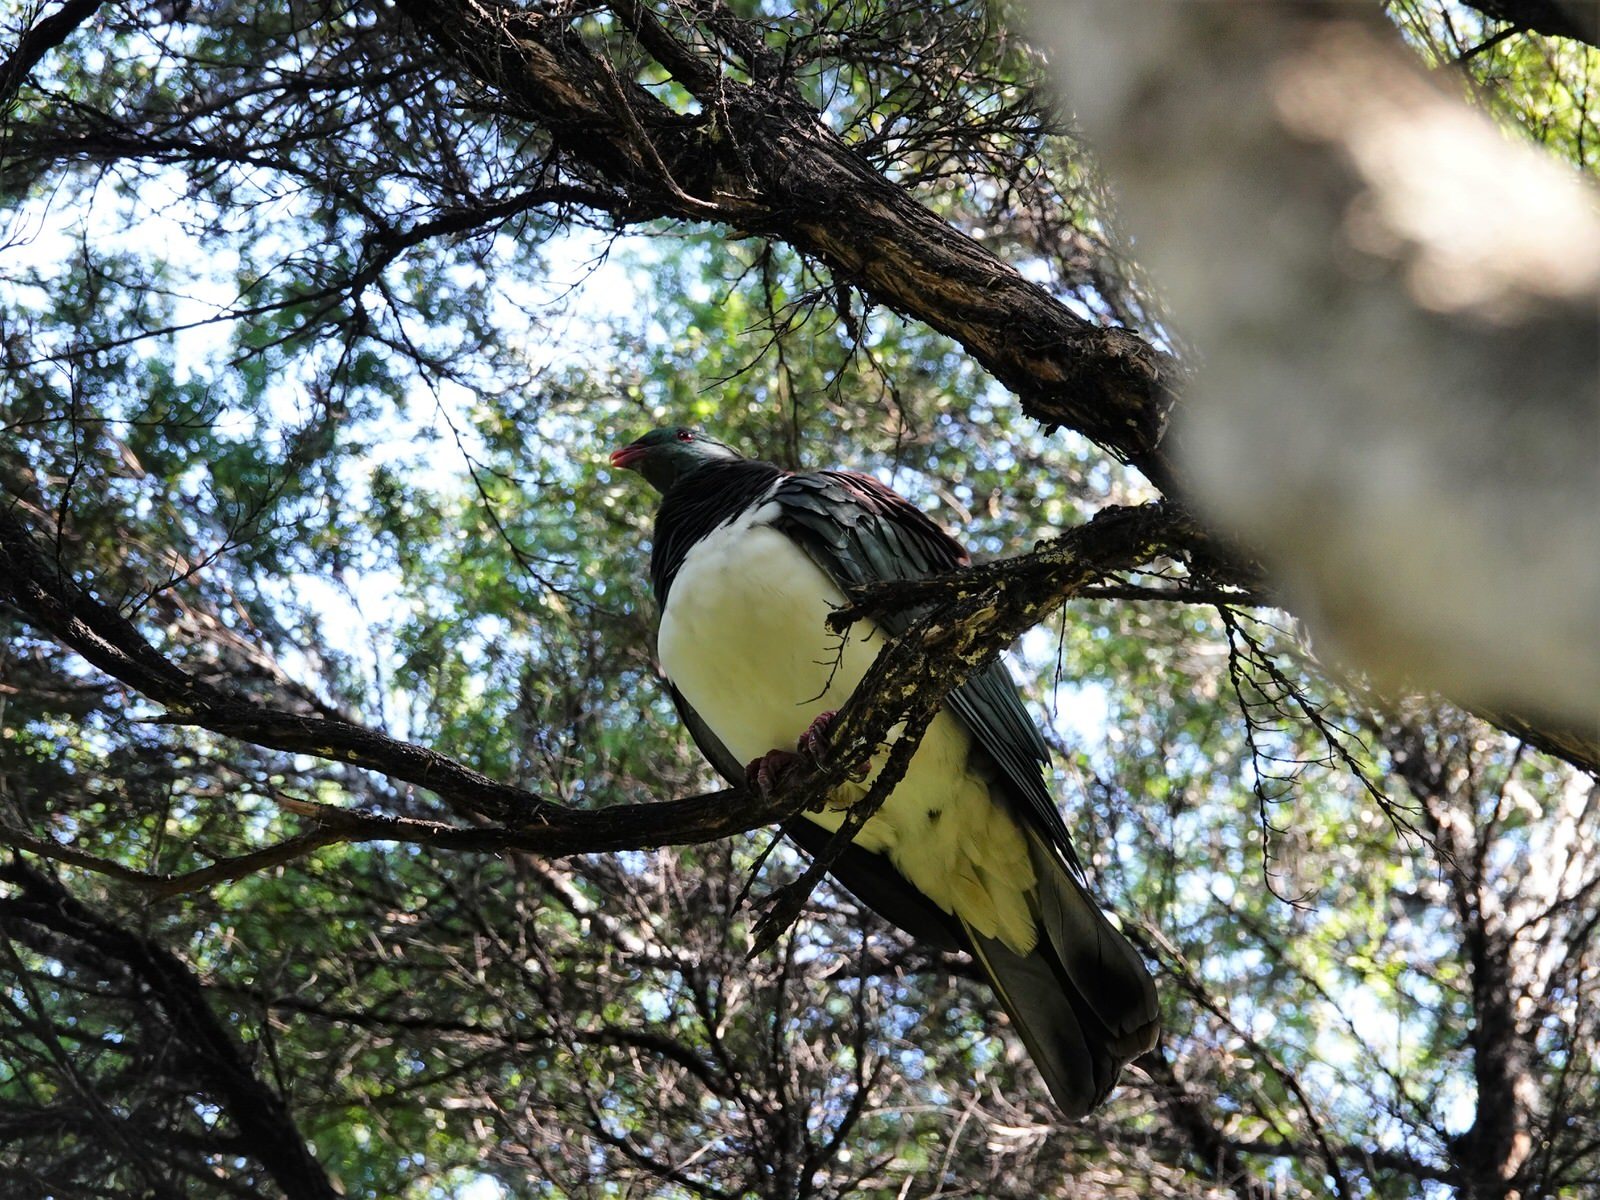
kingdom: Animalia
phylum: Chordata
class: Aves
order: Columbiformes
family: Columbidae
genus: Hemiphaga
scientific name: Hemiphaga novaeseelandiae
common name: New zealand pigeon
